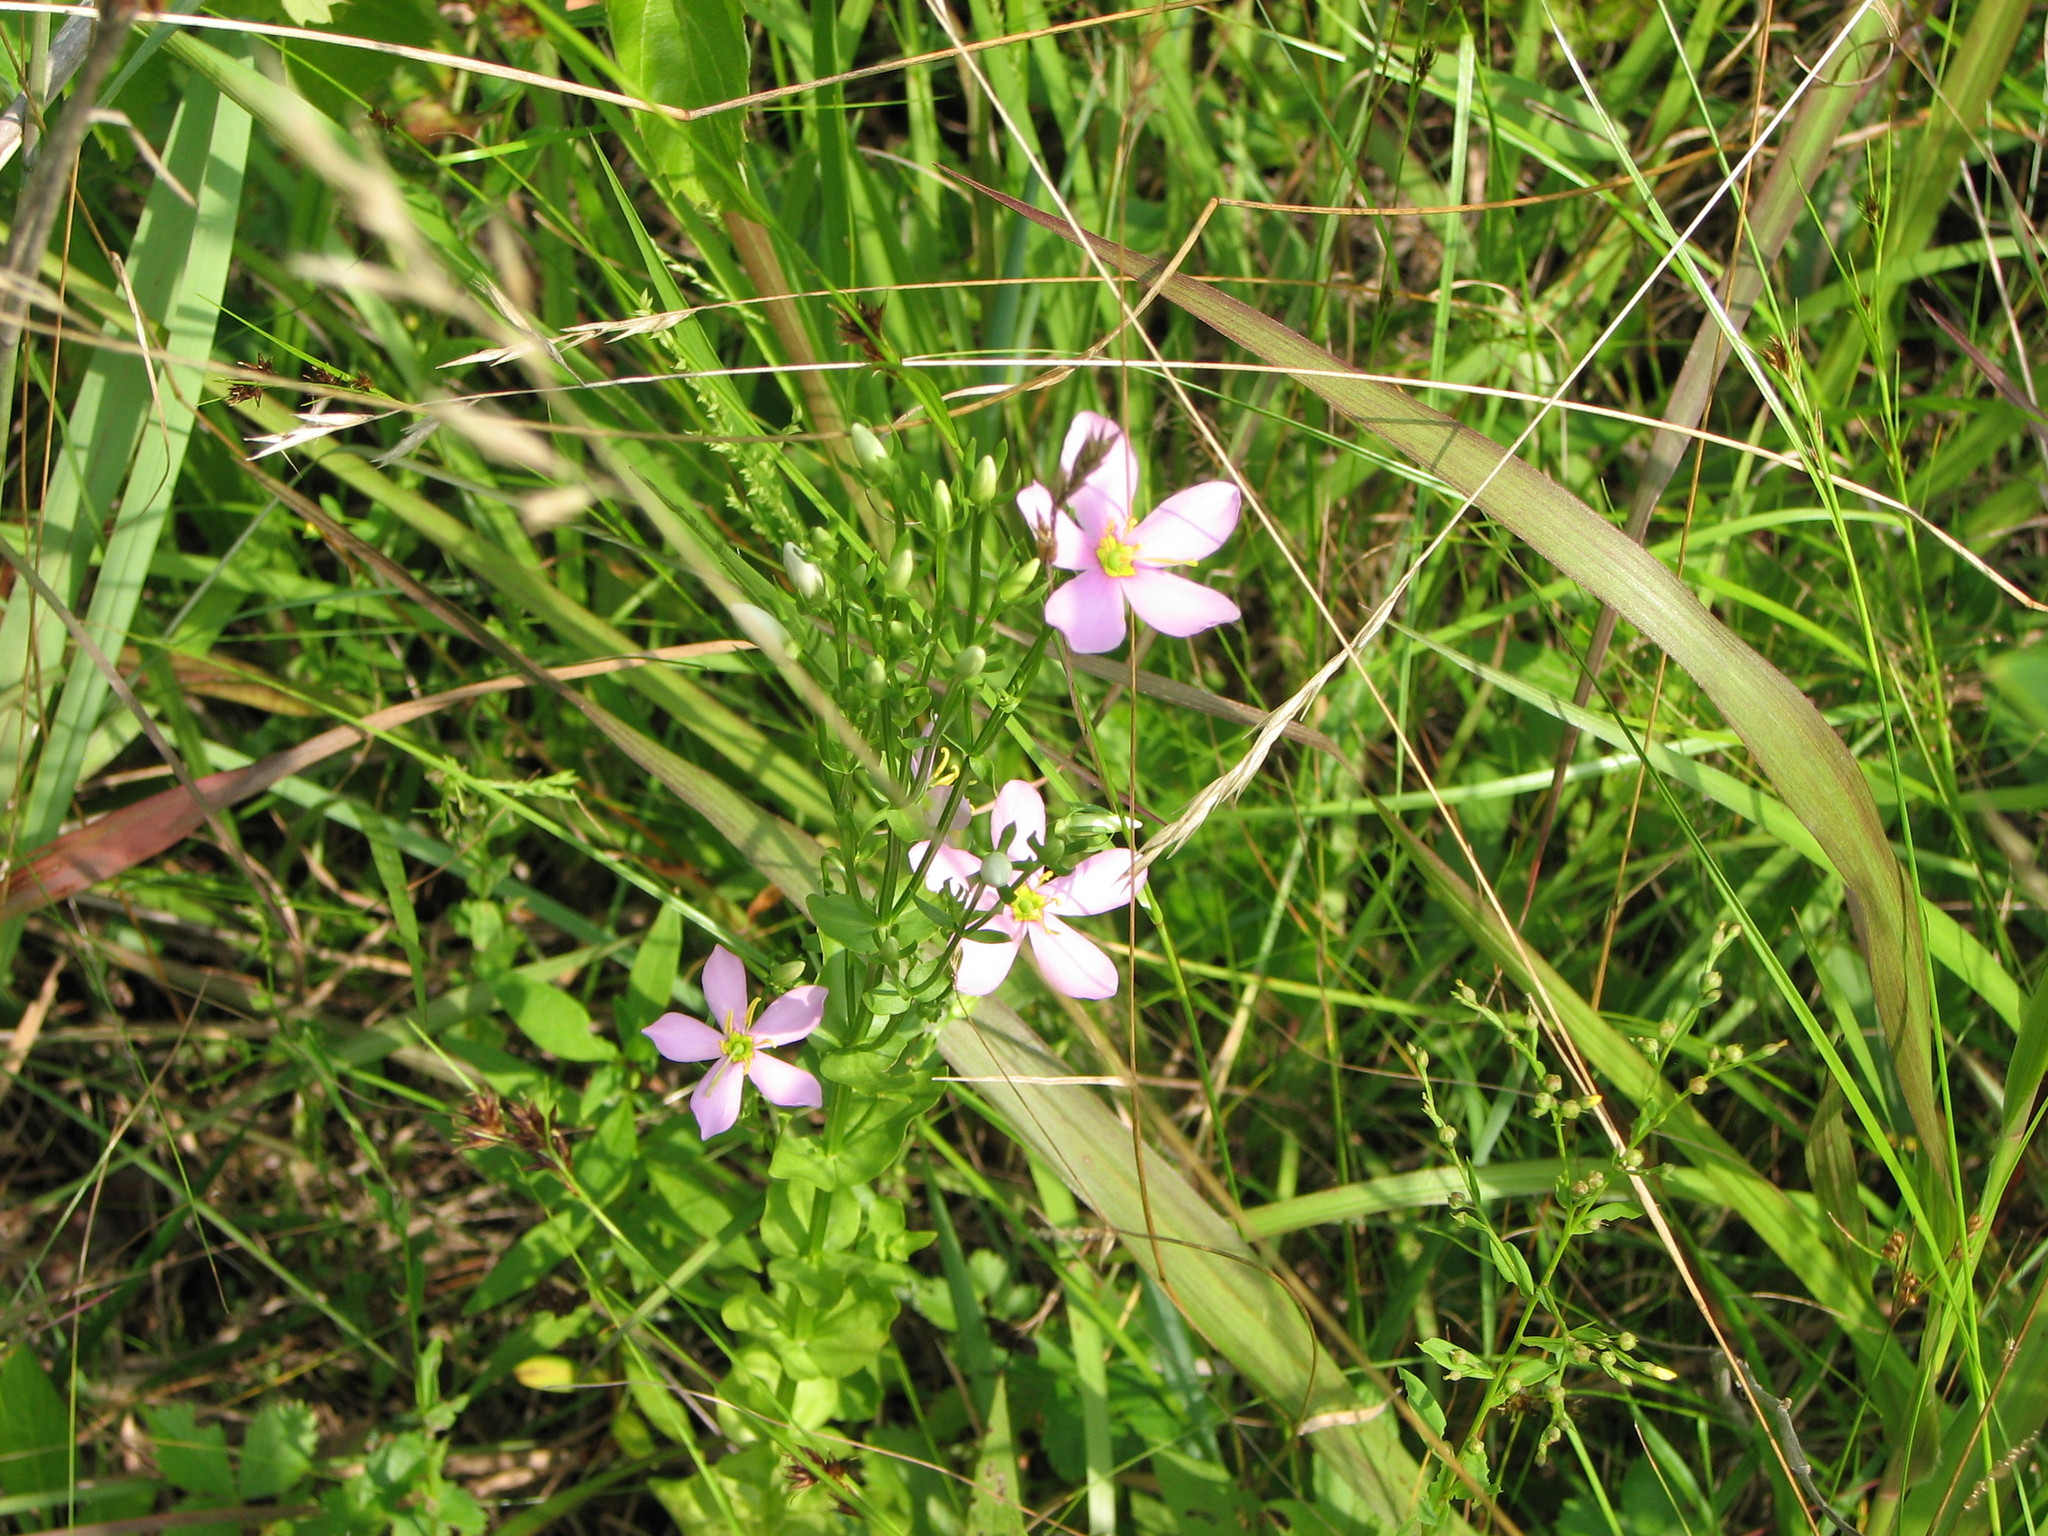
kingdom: Plantae
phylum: Tracheophyta
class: Magnoliopsida
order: Gentianales
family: Gentianaceae
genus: Sabatia
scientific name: Sabatia angularis
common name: Rose-pink
